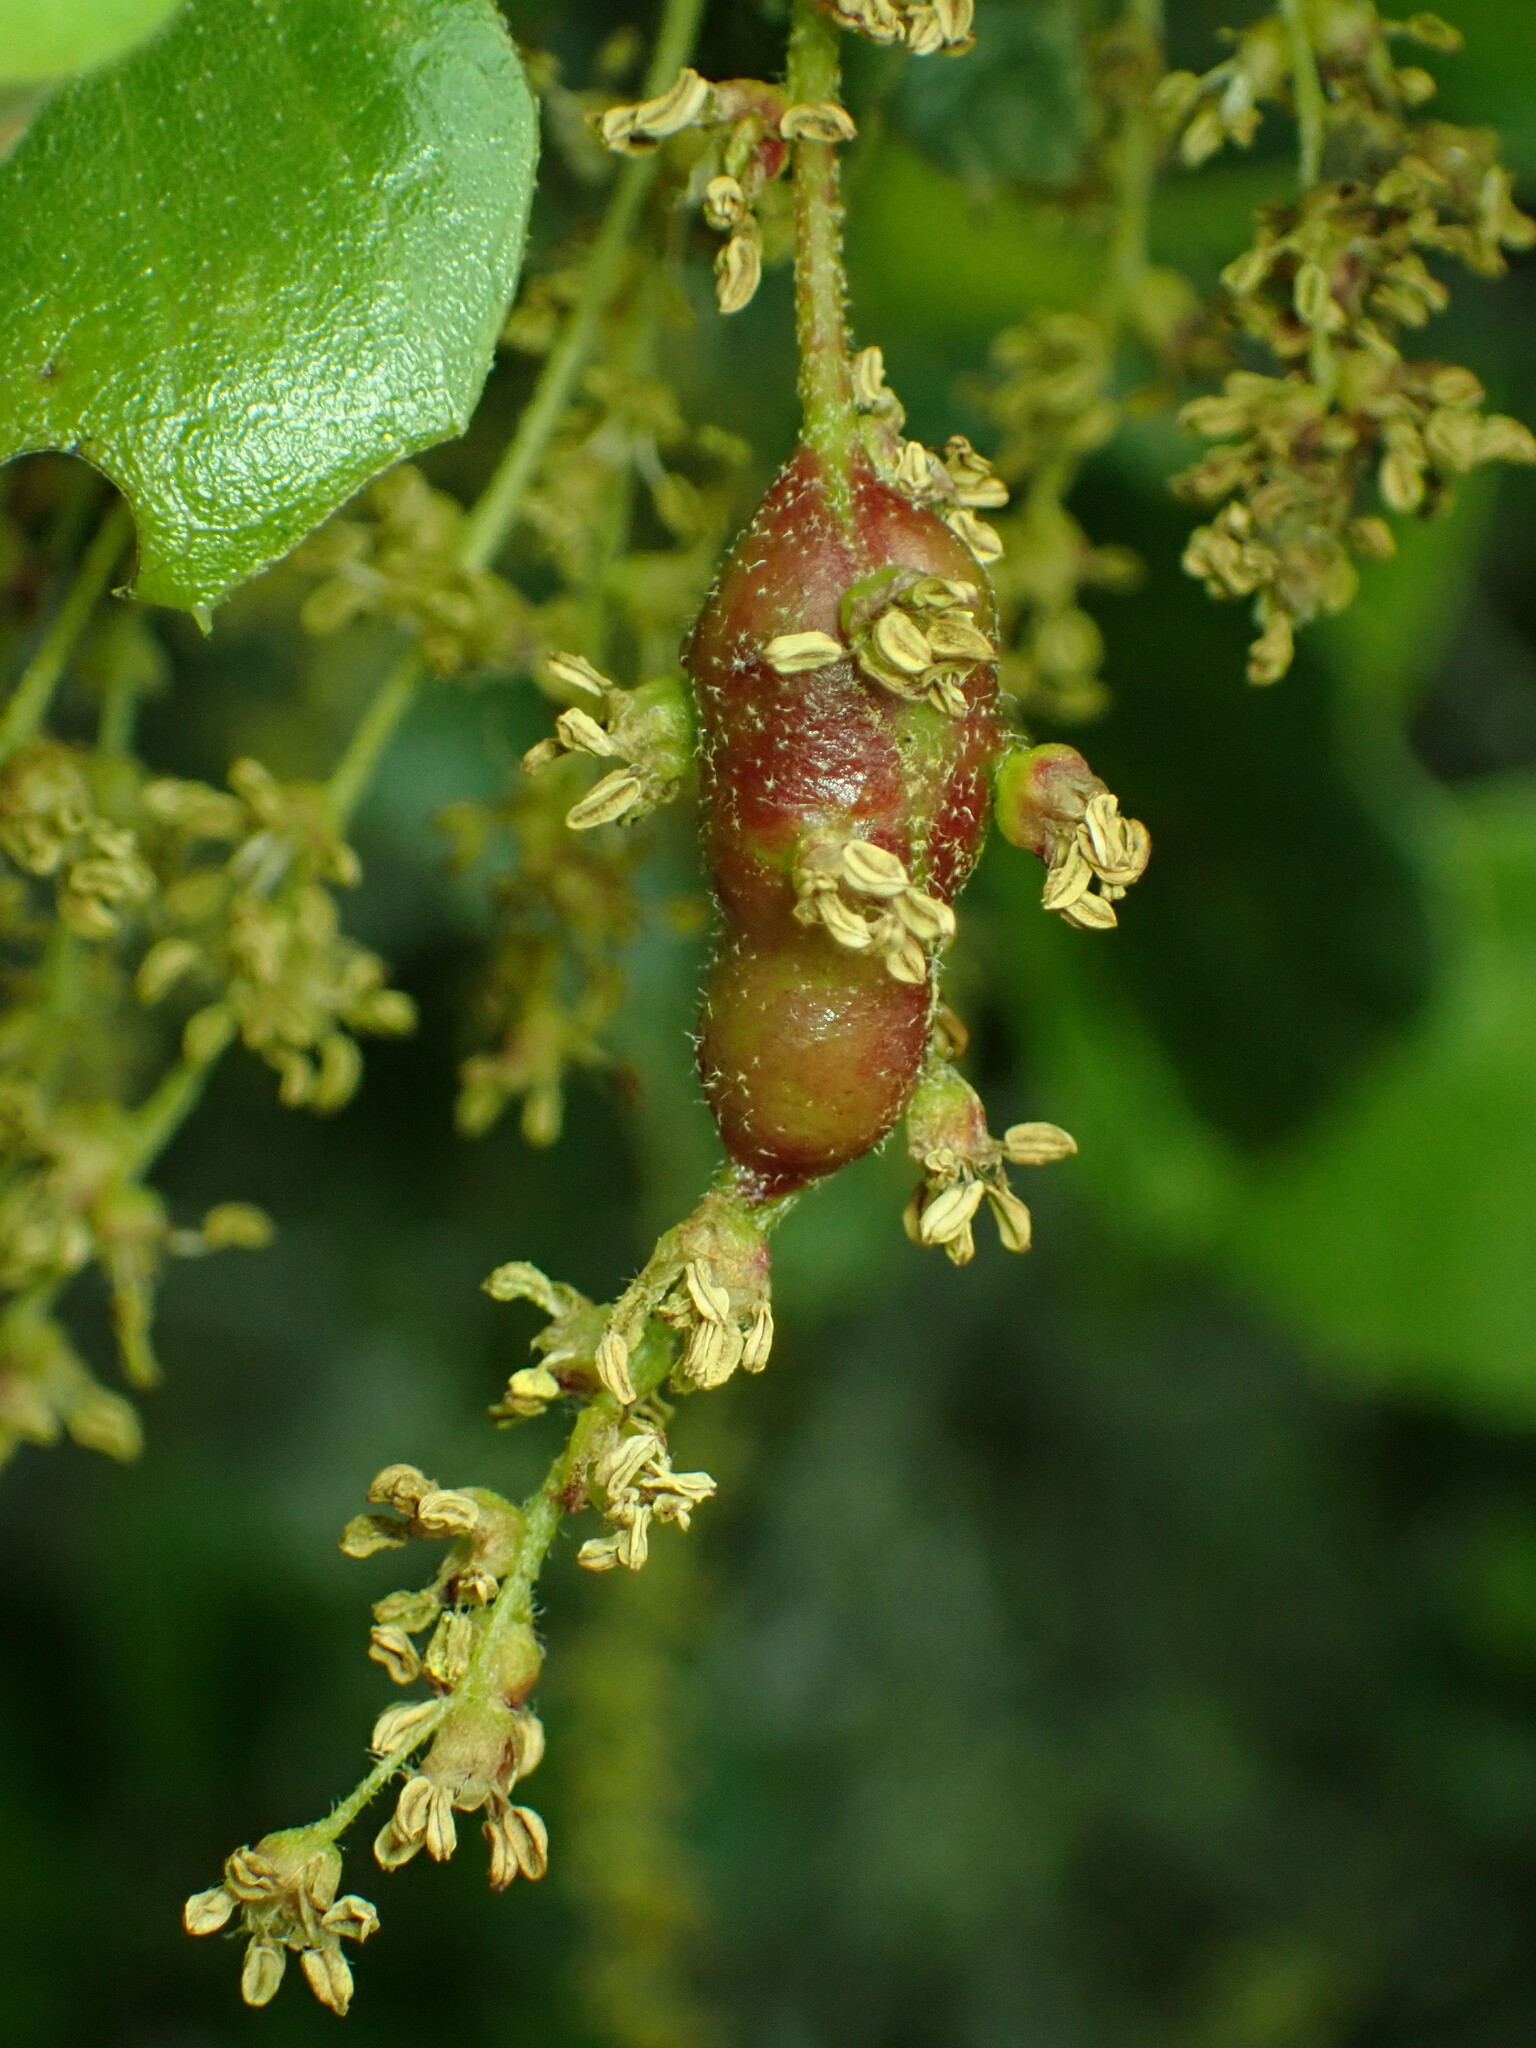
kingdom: Animalia
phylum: Arthropoda
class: Insecta
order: Hymenoptera
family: Cynipidae
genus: Callirhytis
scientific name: Callirhytis
